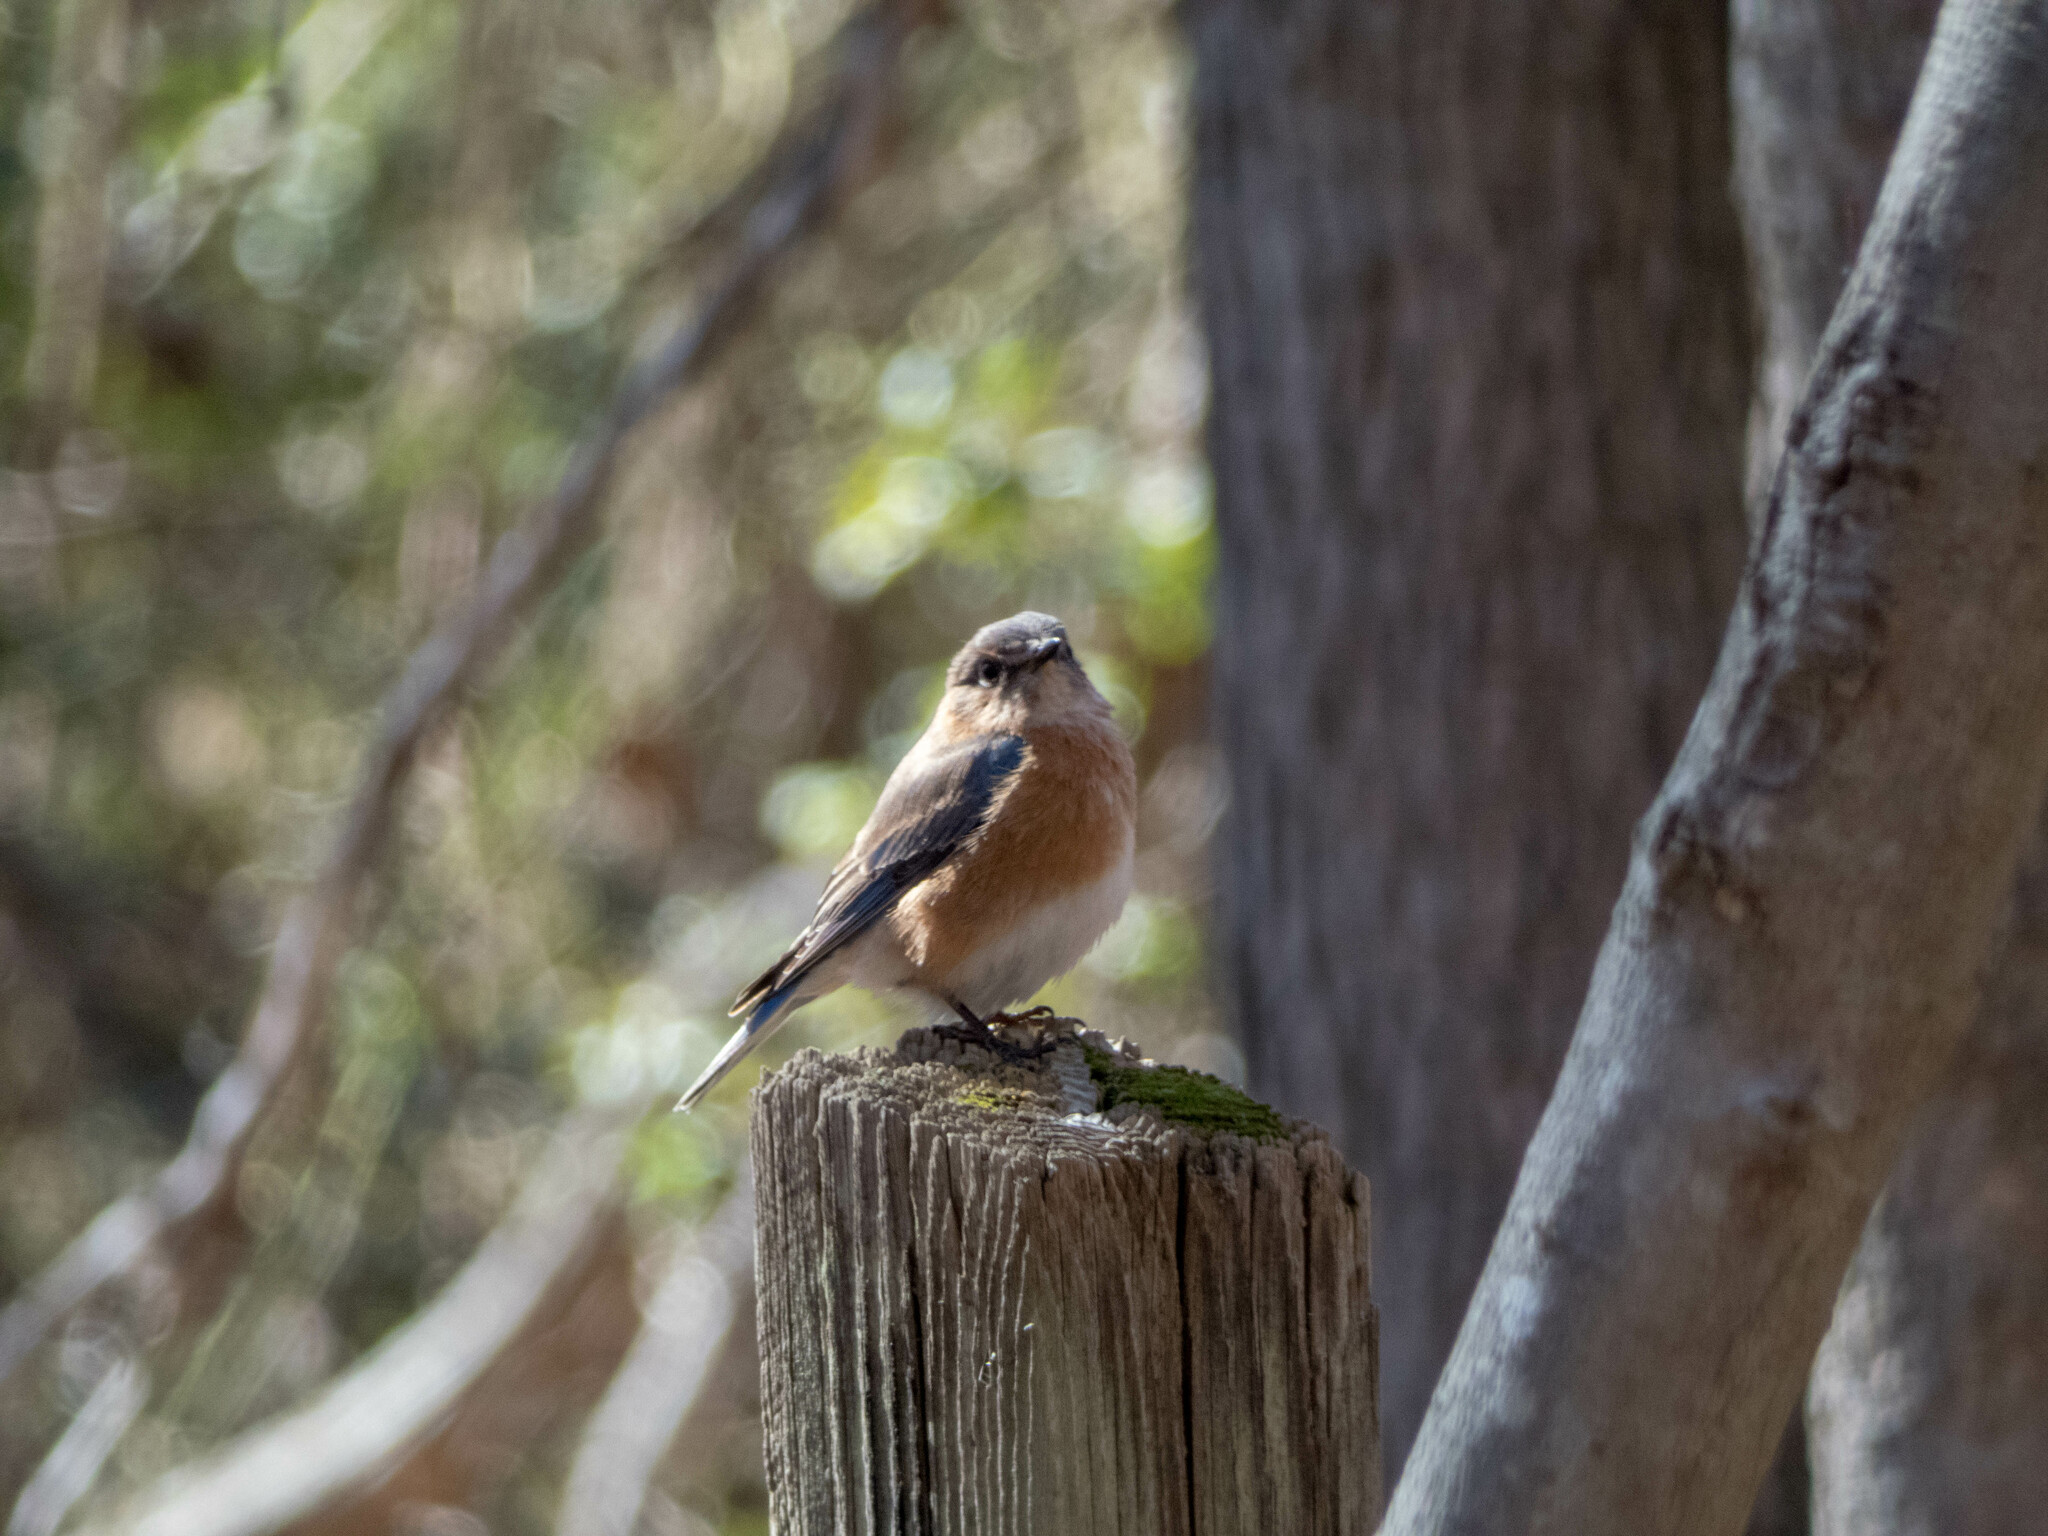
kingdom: Animalia
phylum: Chordata
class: Aves
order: Passeriformes
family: Turdidae
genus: Sialia
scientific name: Sialia sialis
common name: Eastern bluebird
